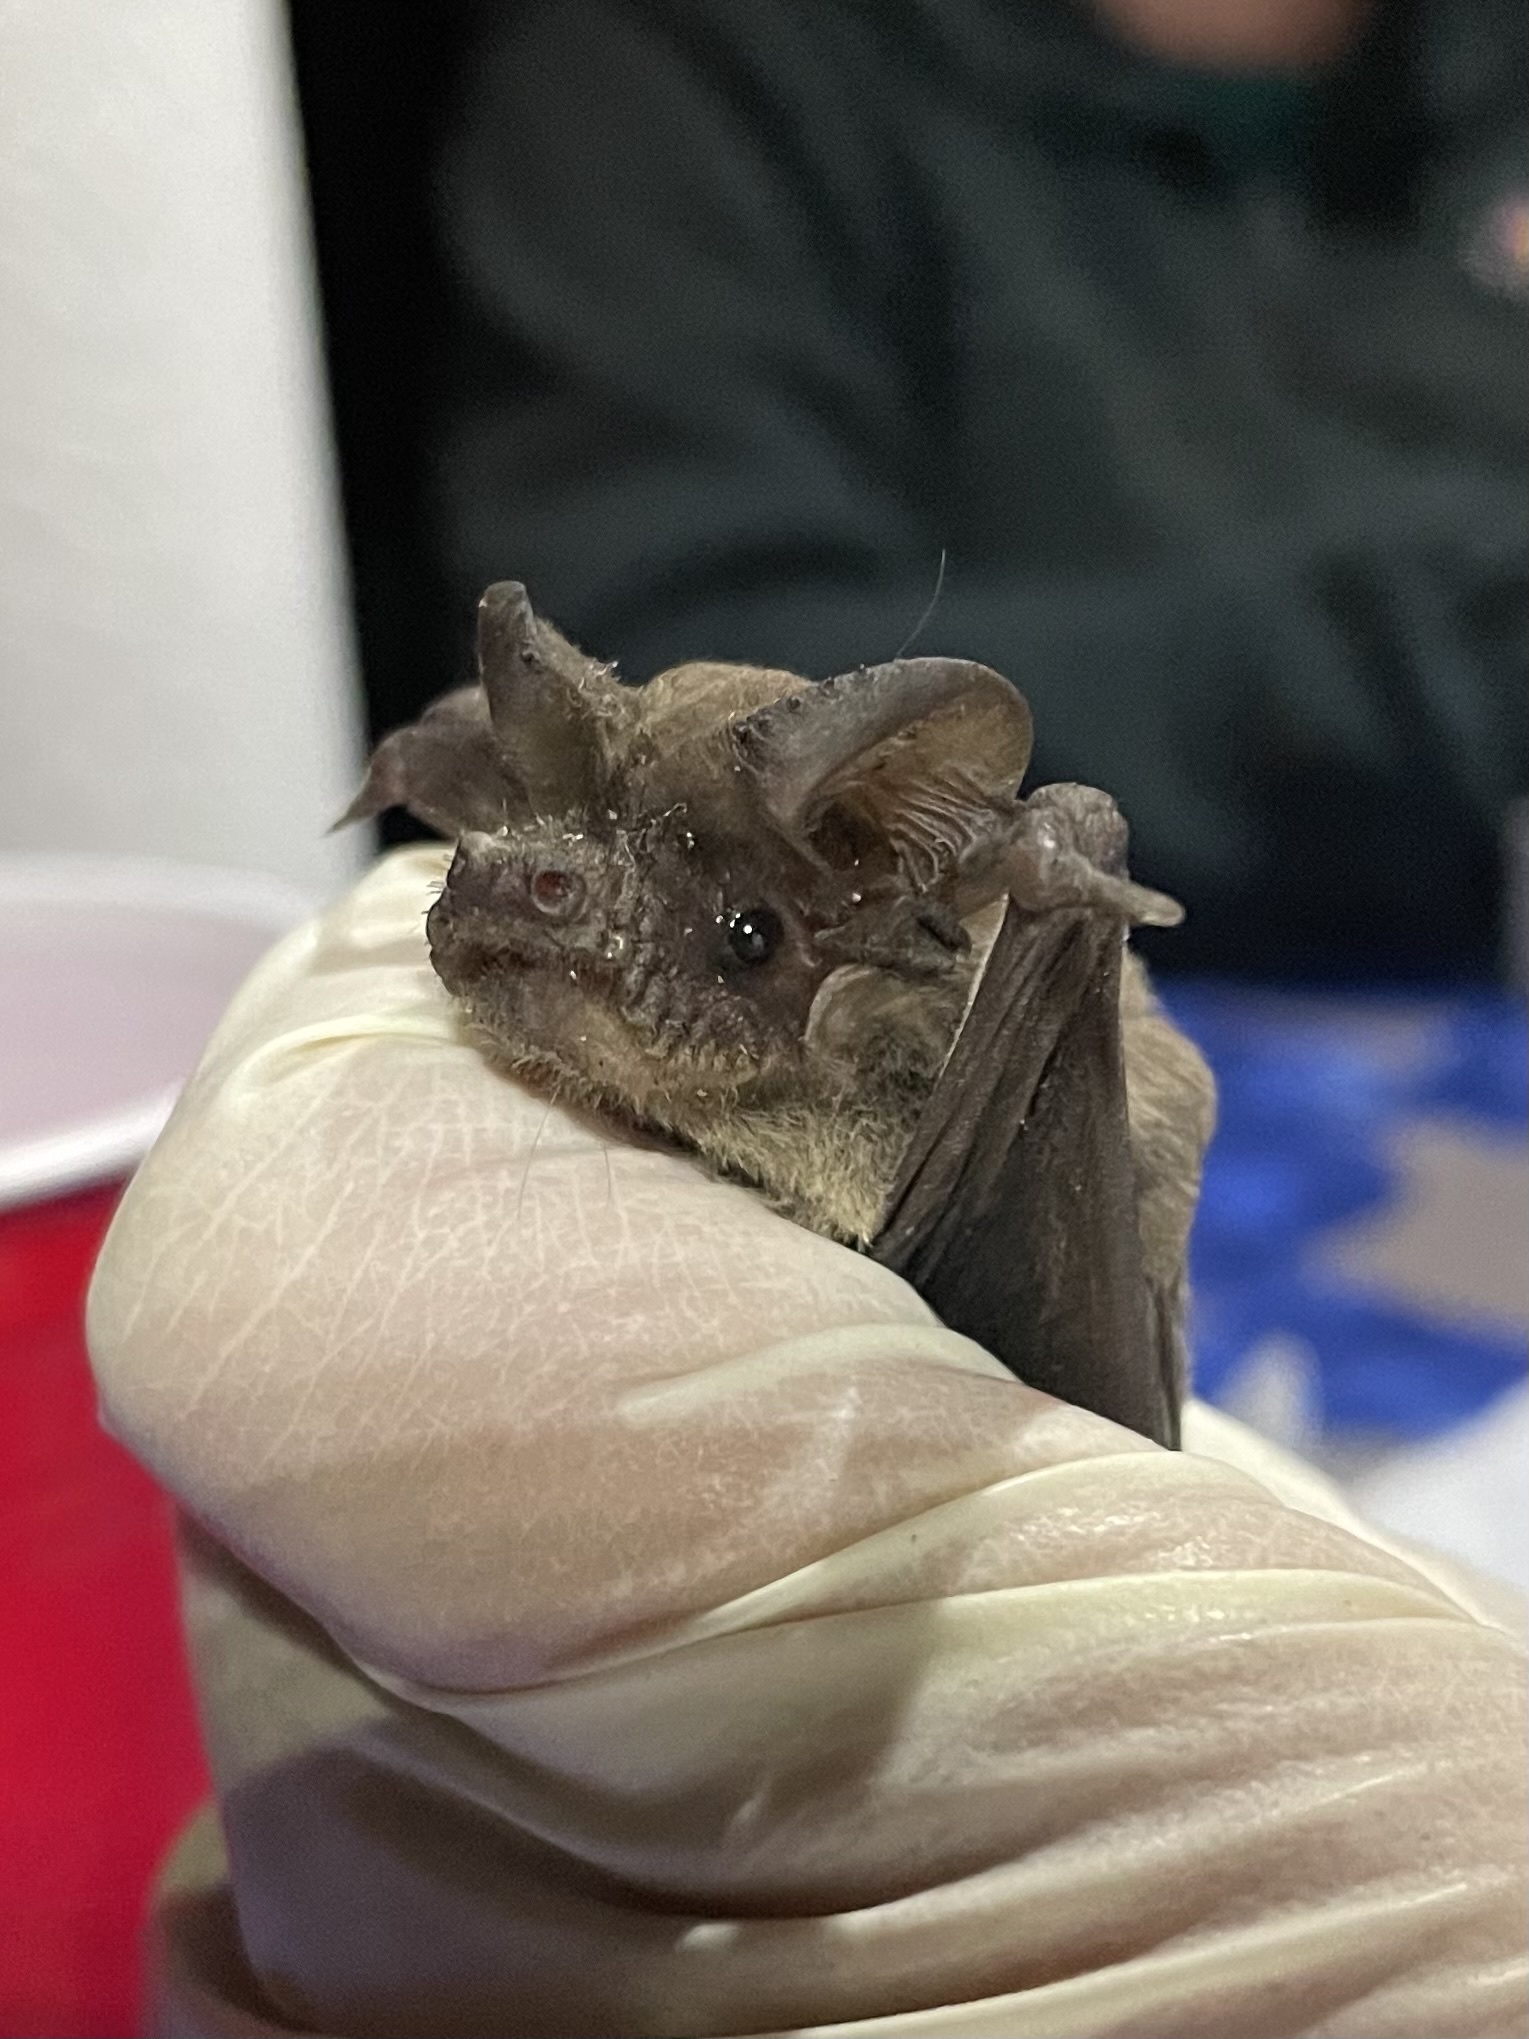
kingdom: Animalia
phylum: Chordata
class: Mammalia
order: Chiroptera
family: Molossidae
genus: Tadarida
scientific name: Tadarida brasiliensis
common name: Mexican free-tailed bat
